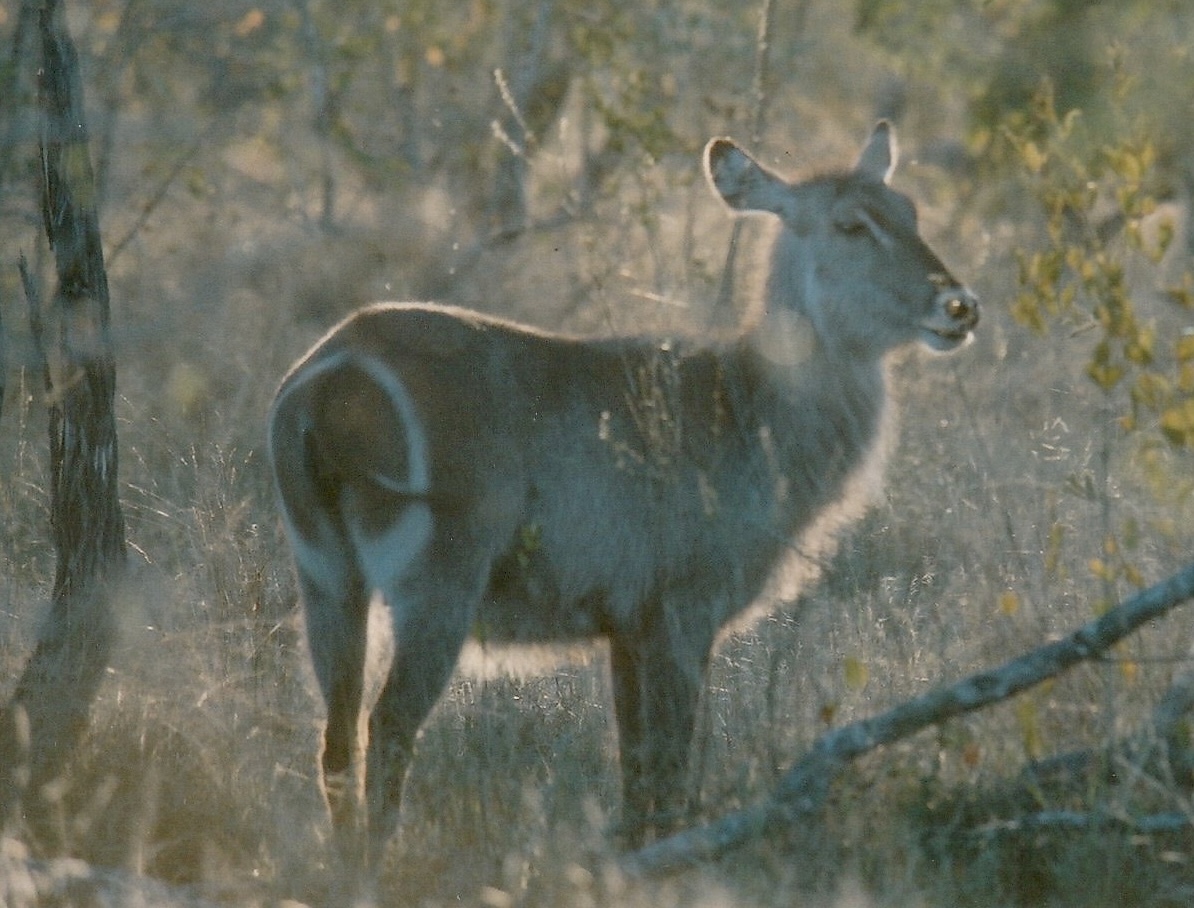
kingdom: Animalia
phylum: Chordata
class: Mammalia
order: Artiodactyla
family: Bovidae
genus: Kobus
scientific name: Kobus ellipsiprymnus
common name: Waterbuck
